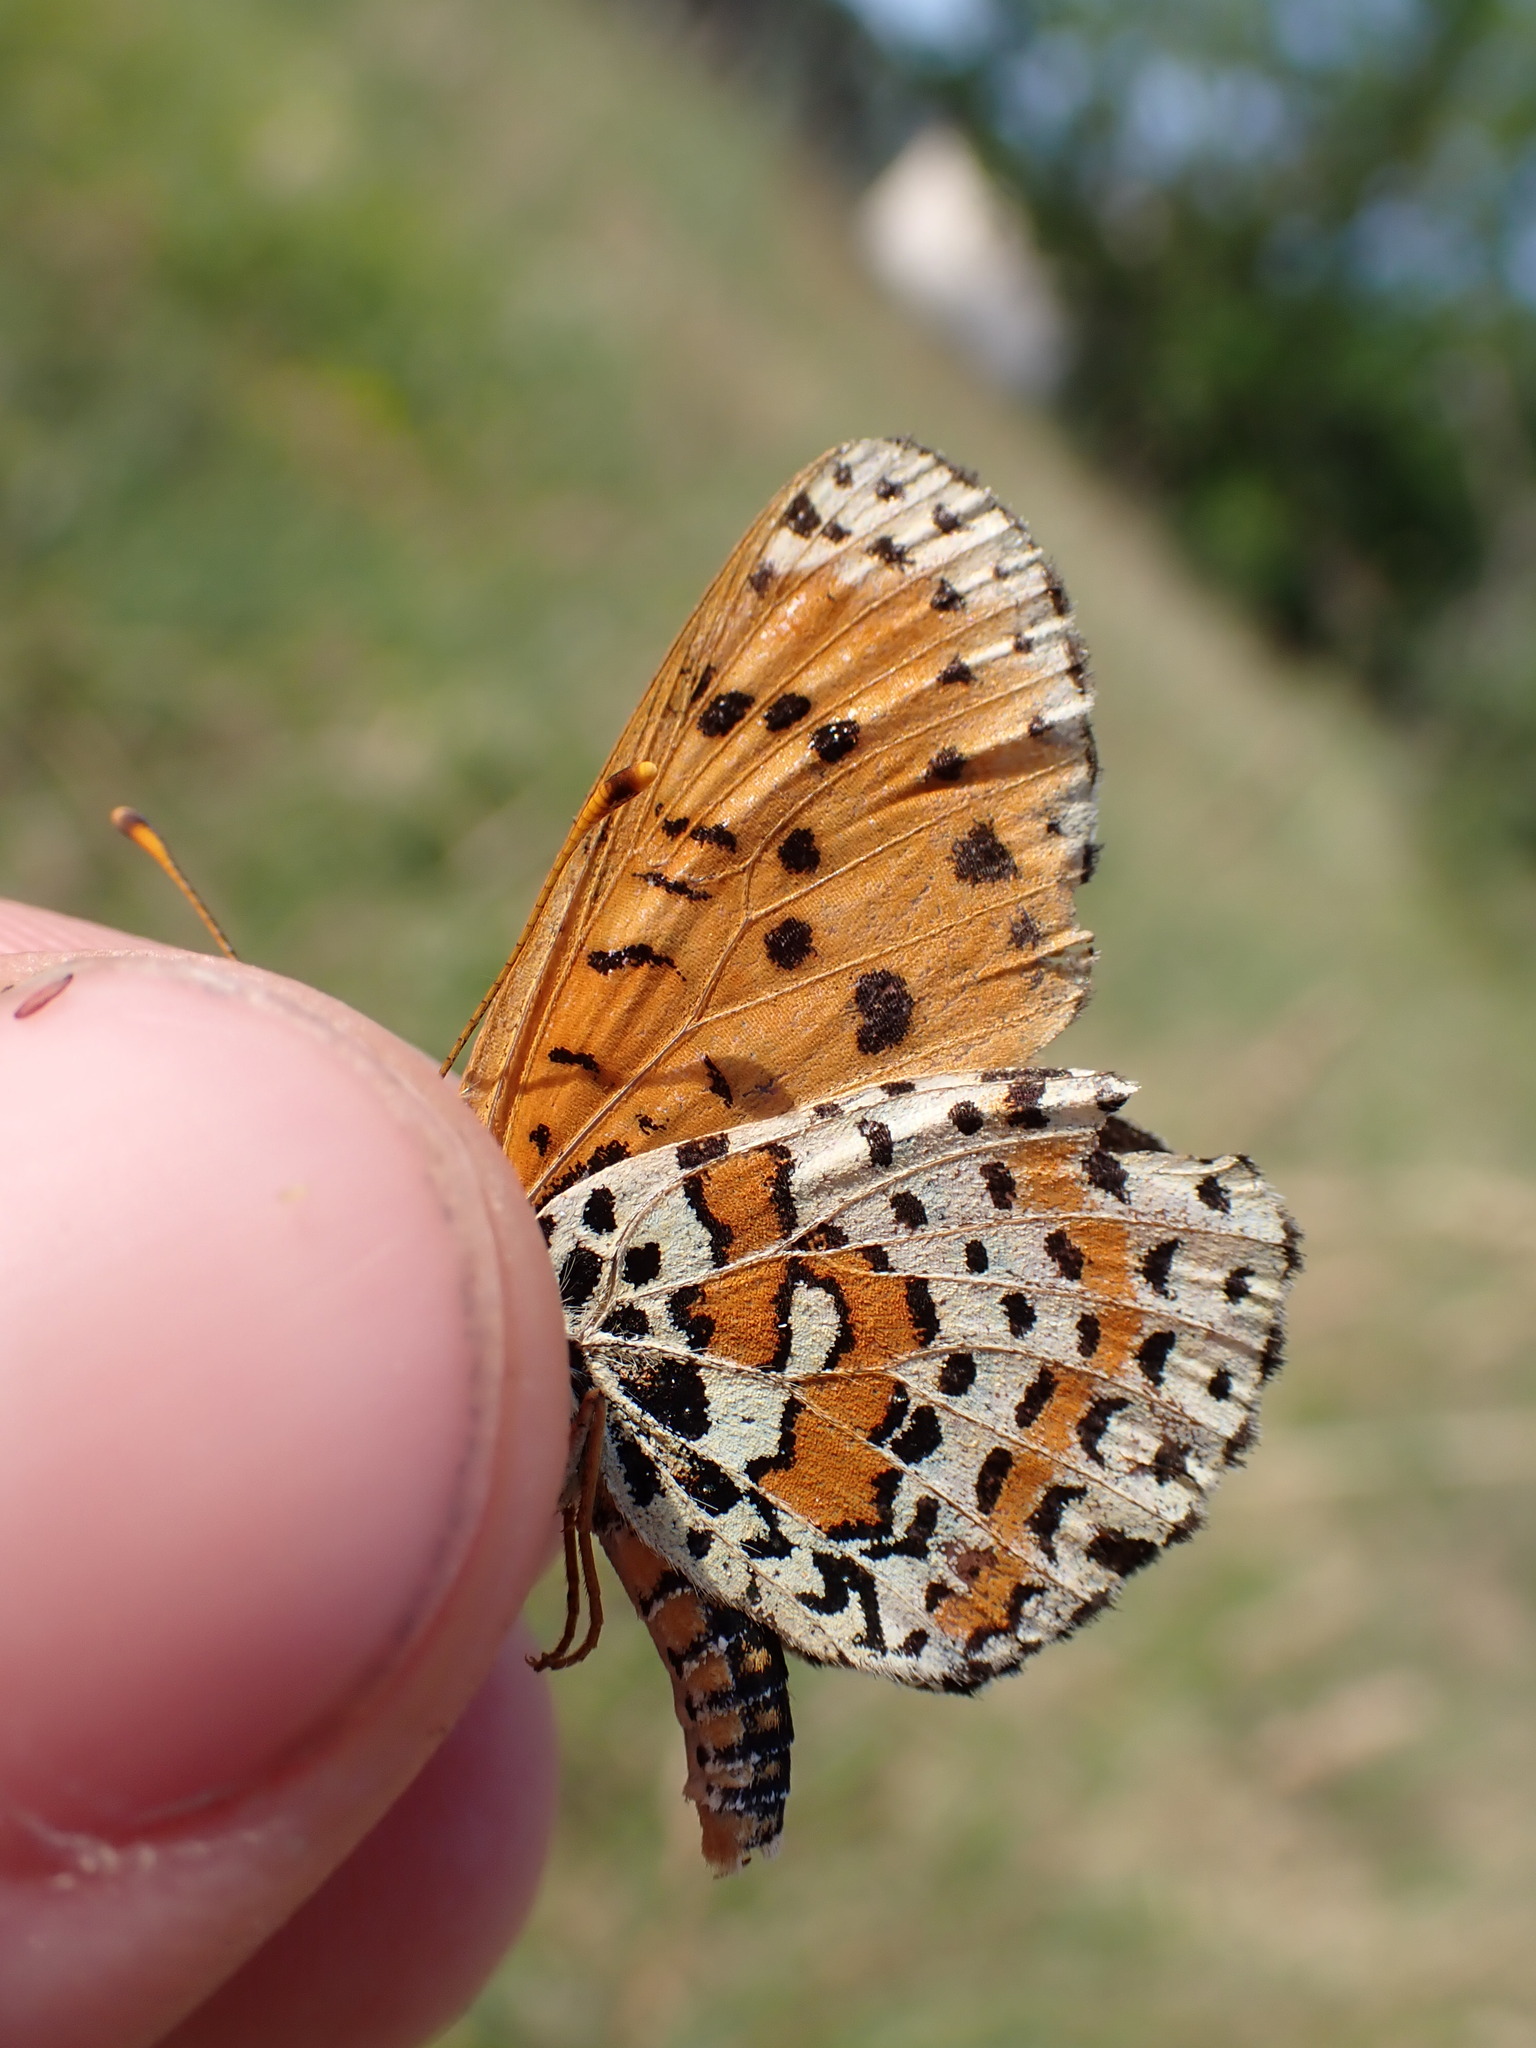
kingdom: Animalia
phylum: Arthropoda
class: Insecta
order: Lepidoptera
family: Nymphalidae
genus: Melitaea
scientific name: Melitaea didyma
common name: Spotted fritillary
